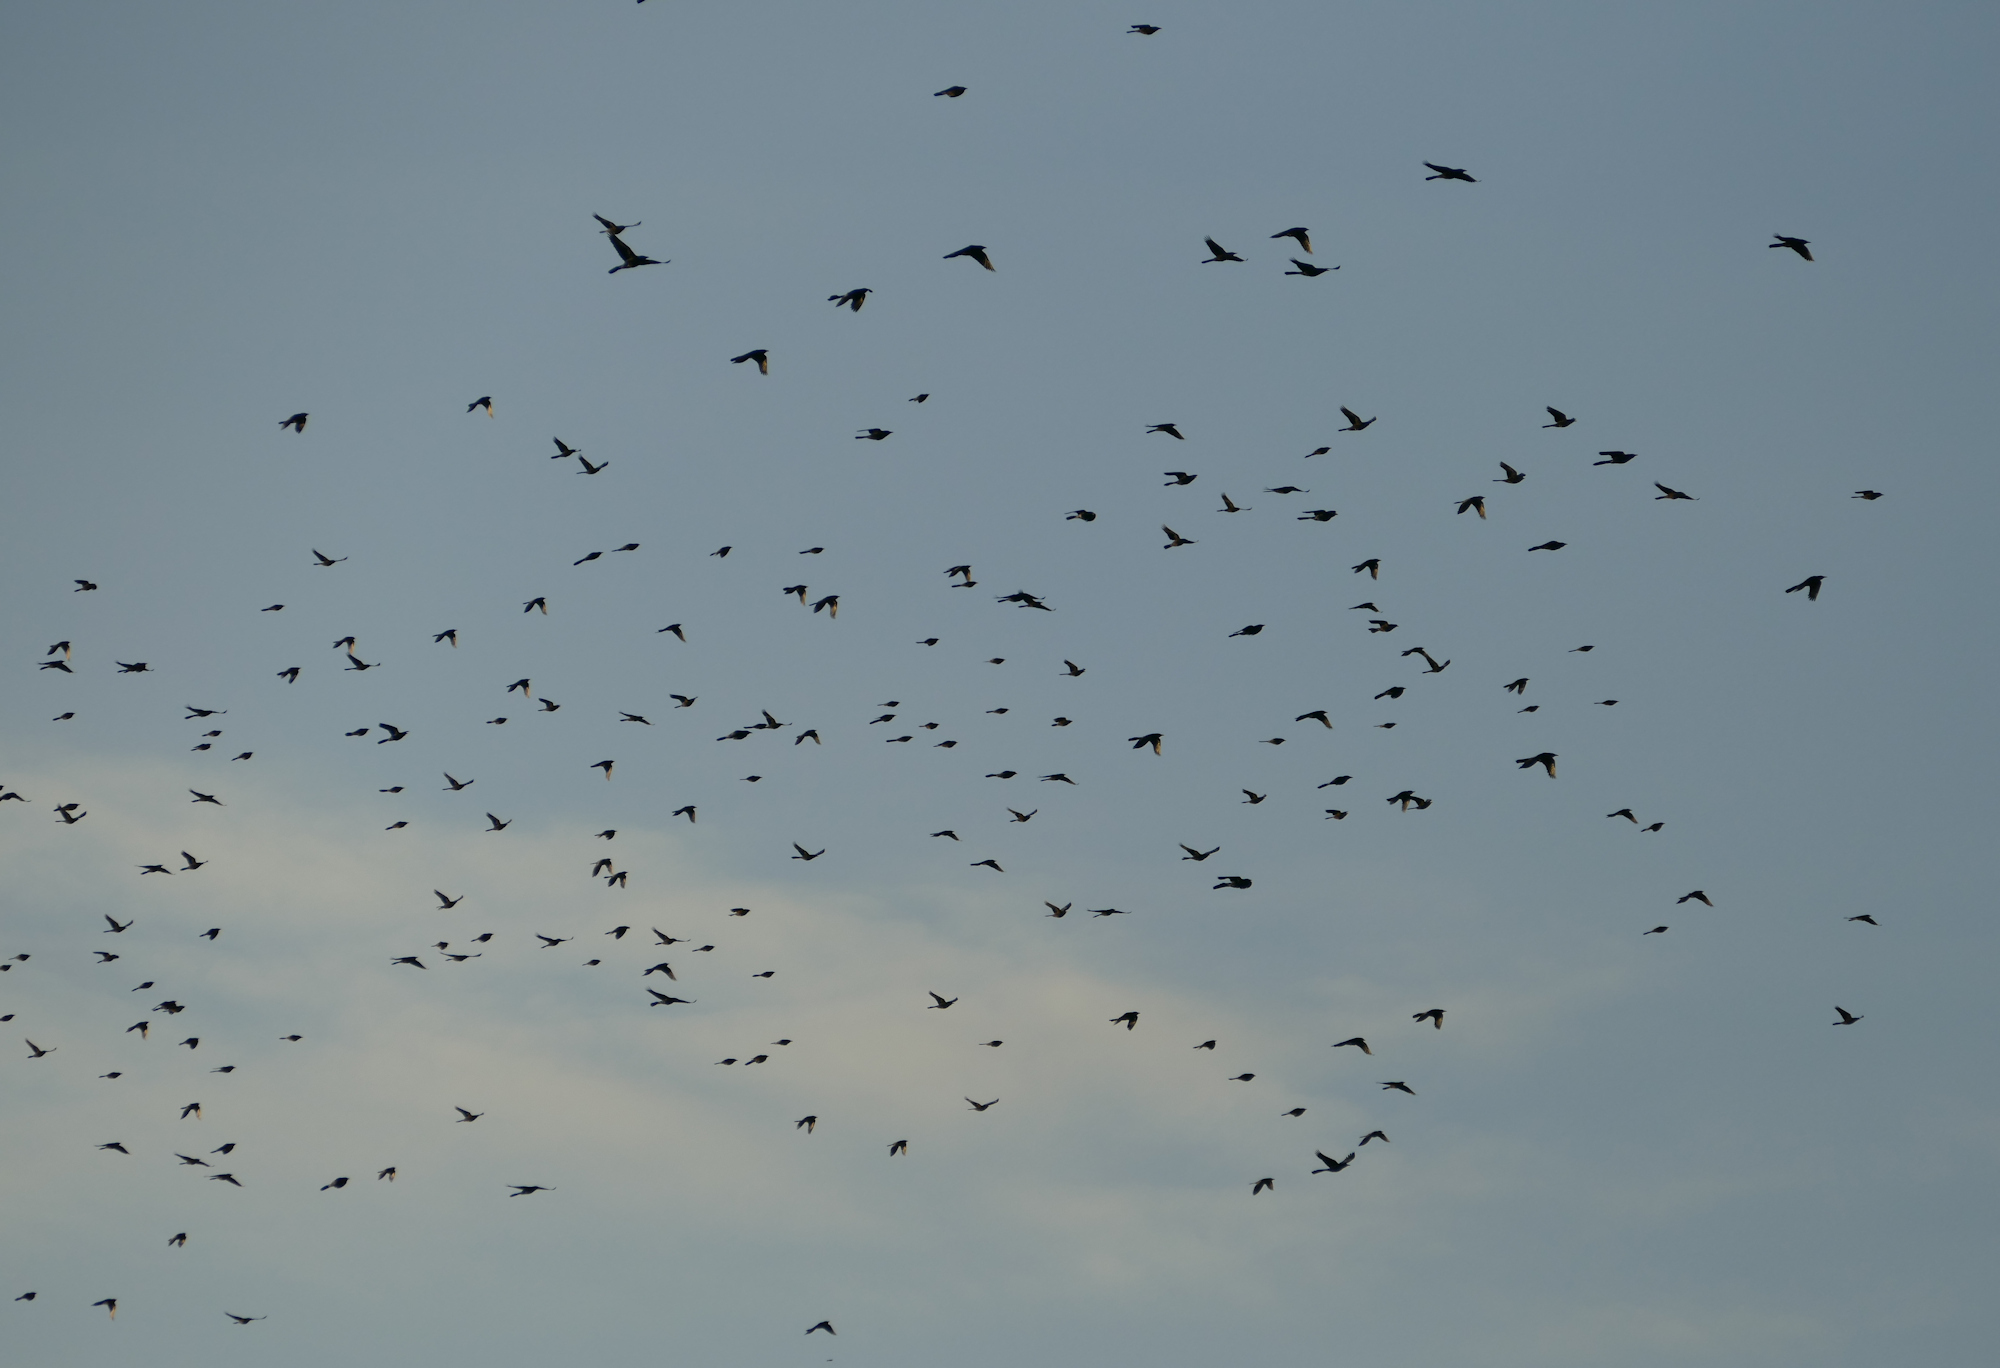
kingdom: Animalia
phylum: Chordata
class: Aves
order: Passeriformes
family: Icteridae
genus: Quiscalus
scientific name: Quiscalus mexicanus
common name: Great-tailed grackle
